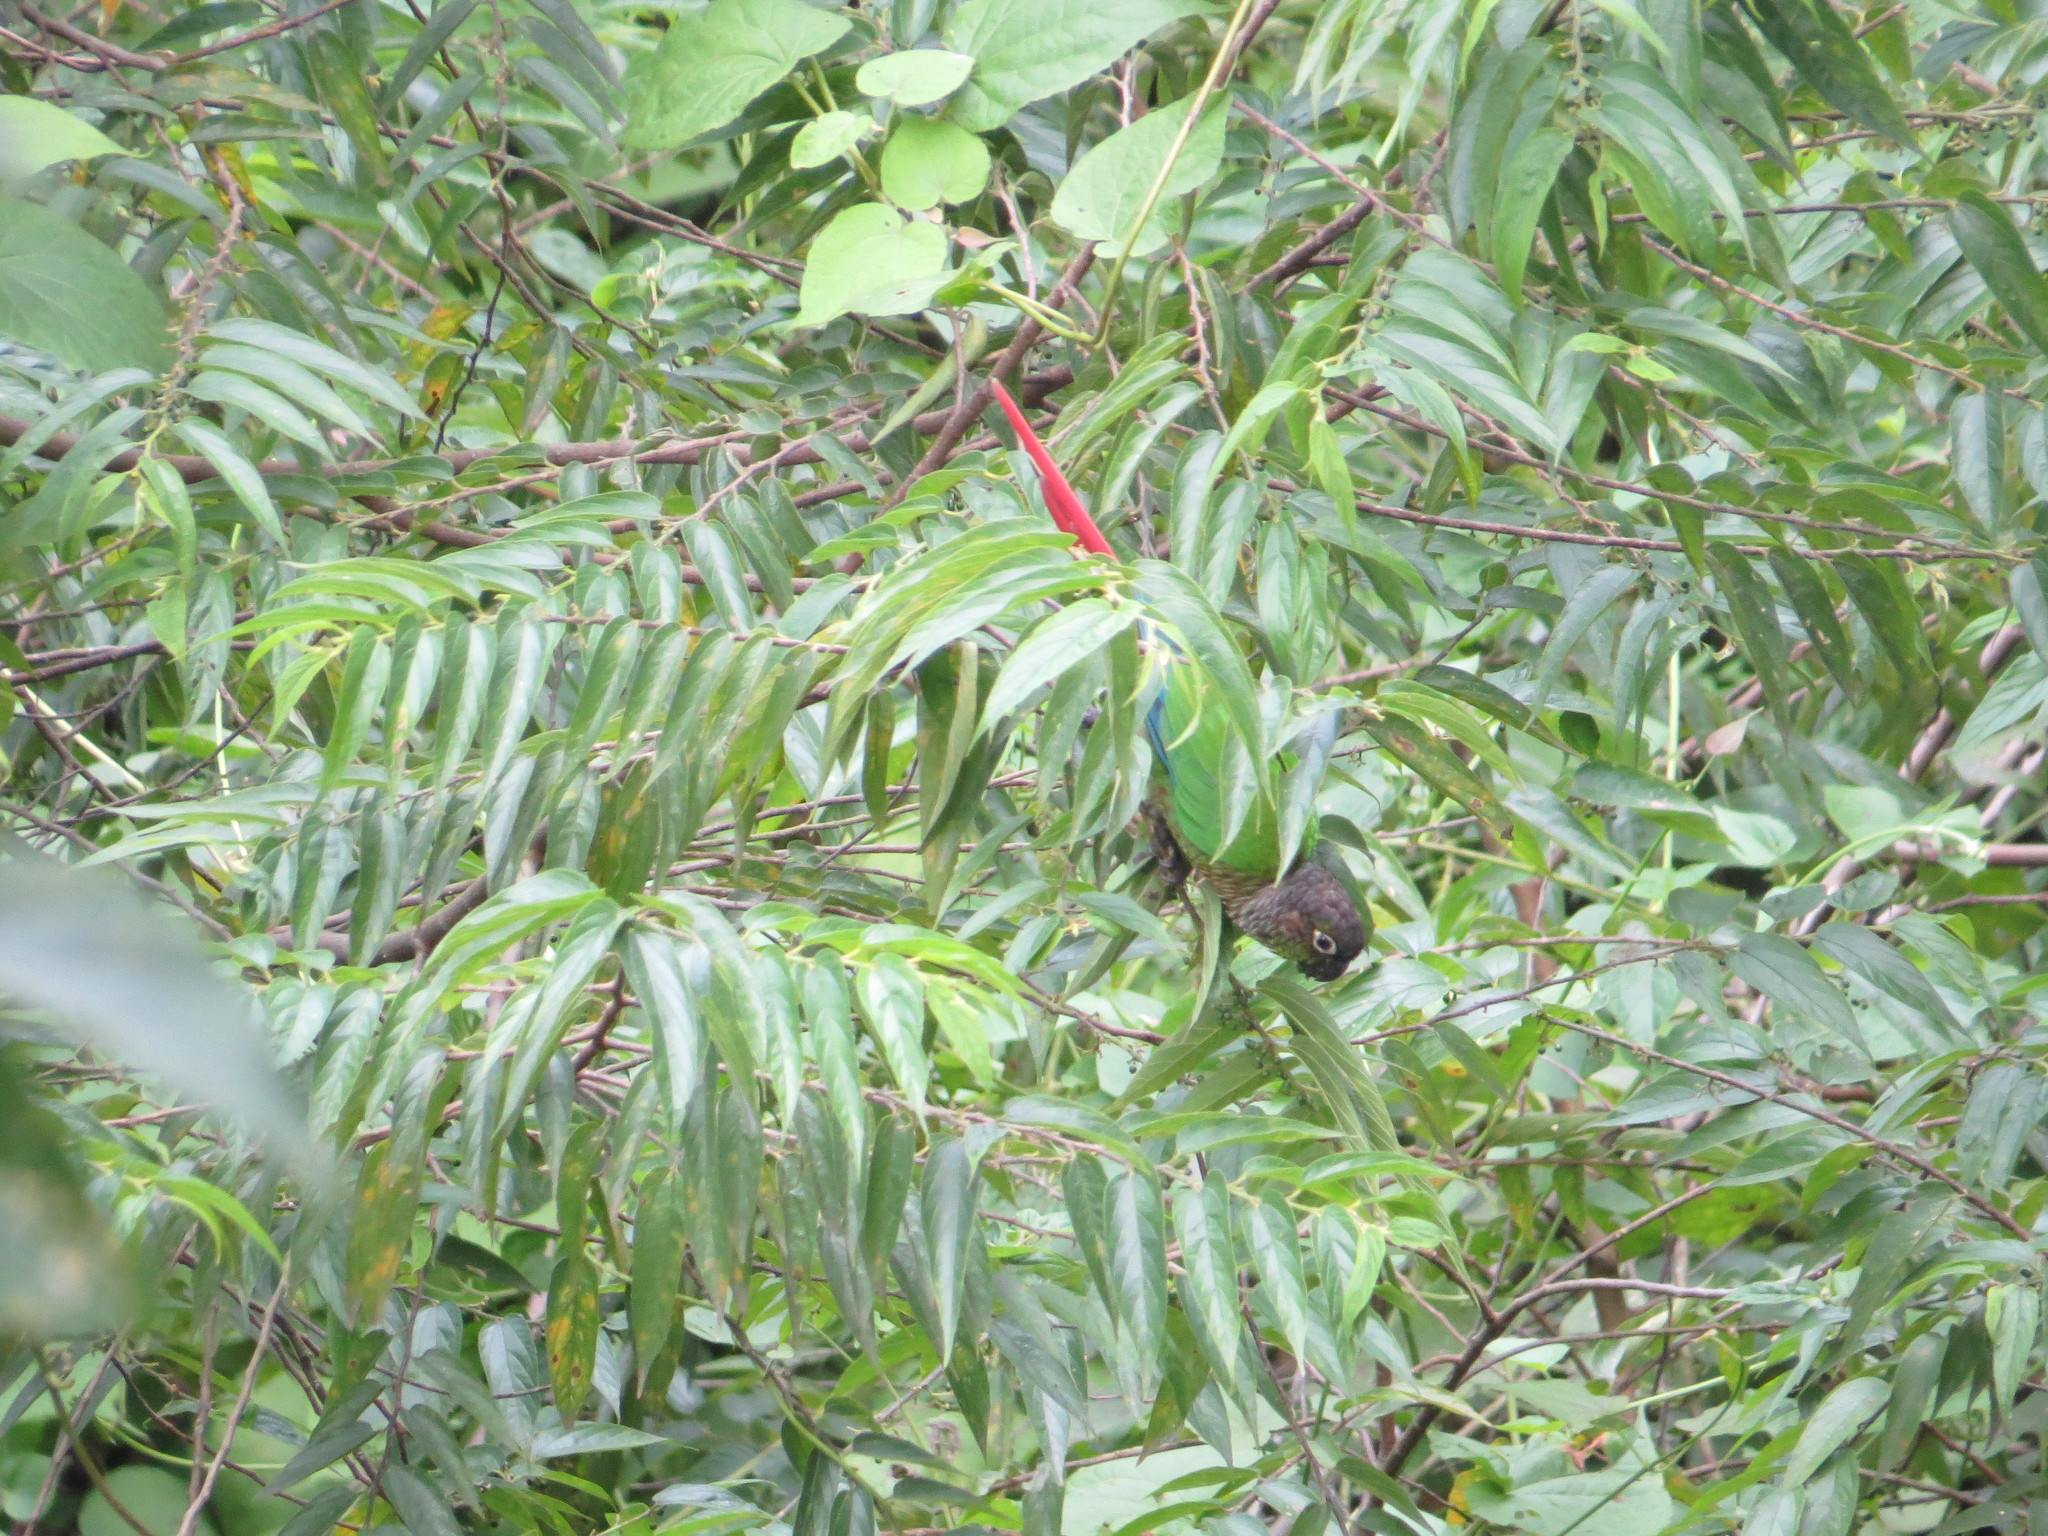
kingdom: Animalia
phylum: Chordata
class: Aves
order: Psittaciformes
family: Psittacidae
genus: Pyrrhura
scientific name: Pyrrhura molinae
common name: Green-cheeked parakeet
